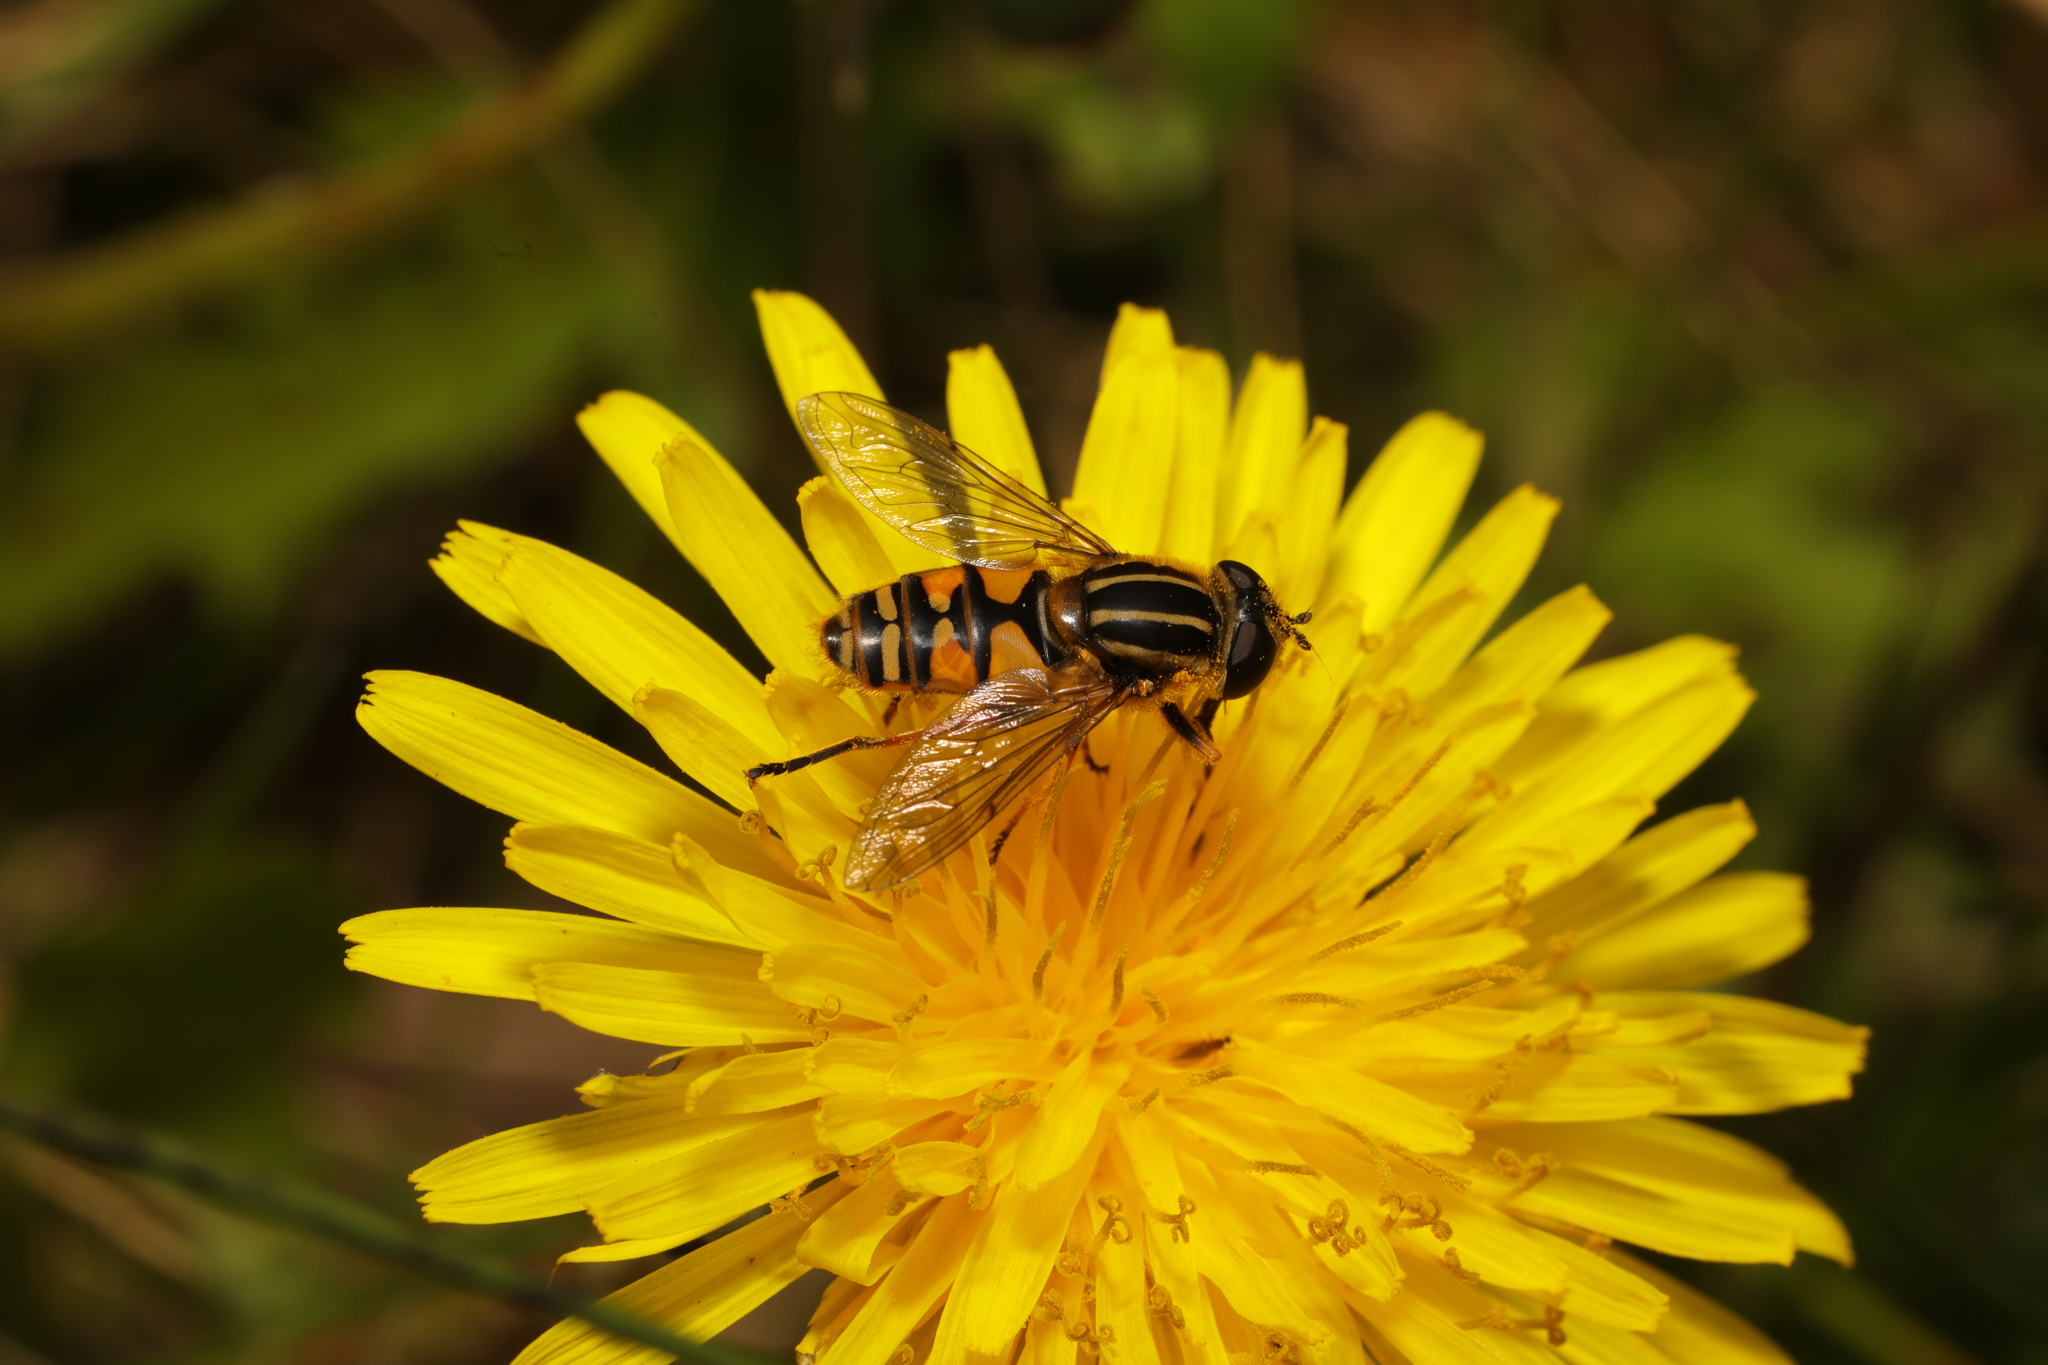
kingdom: Animalia
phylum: Arthropoda
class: Insecta
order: Diptera
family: Syrphidae
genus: Helophilus
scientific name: Helophilus pendulus
